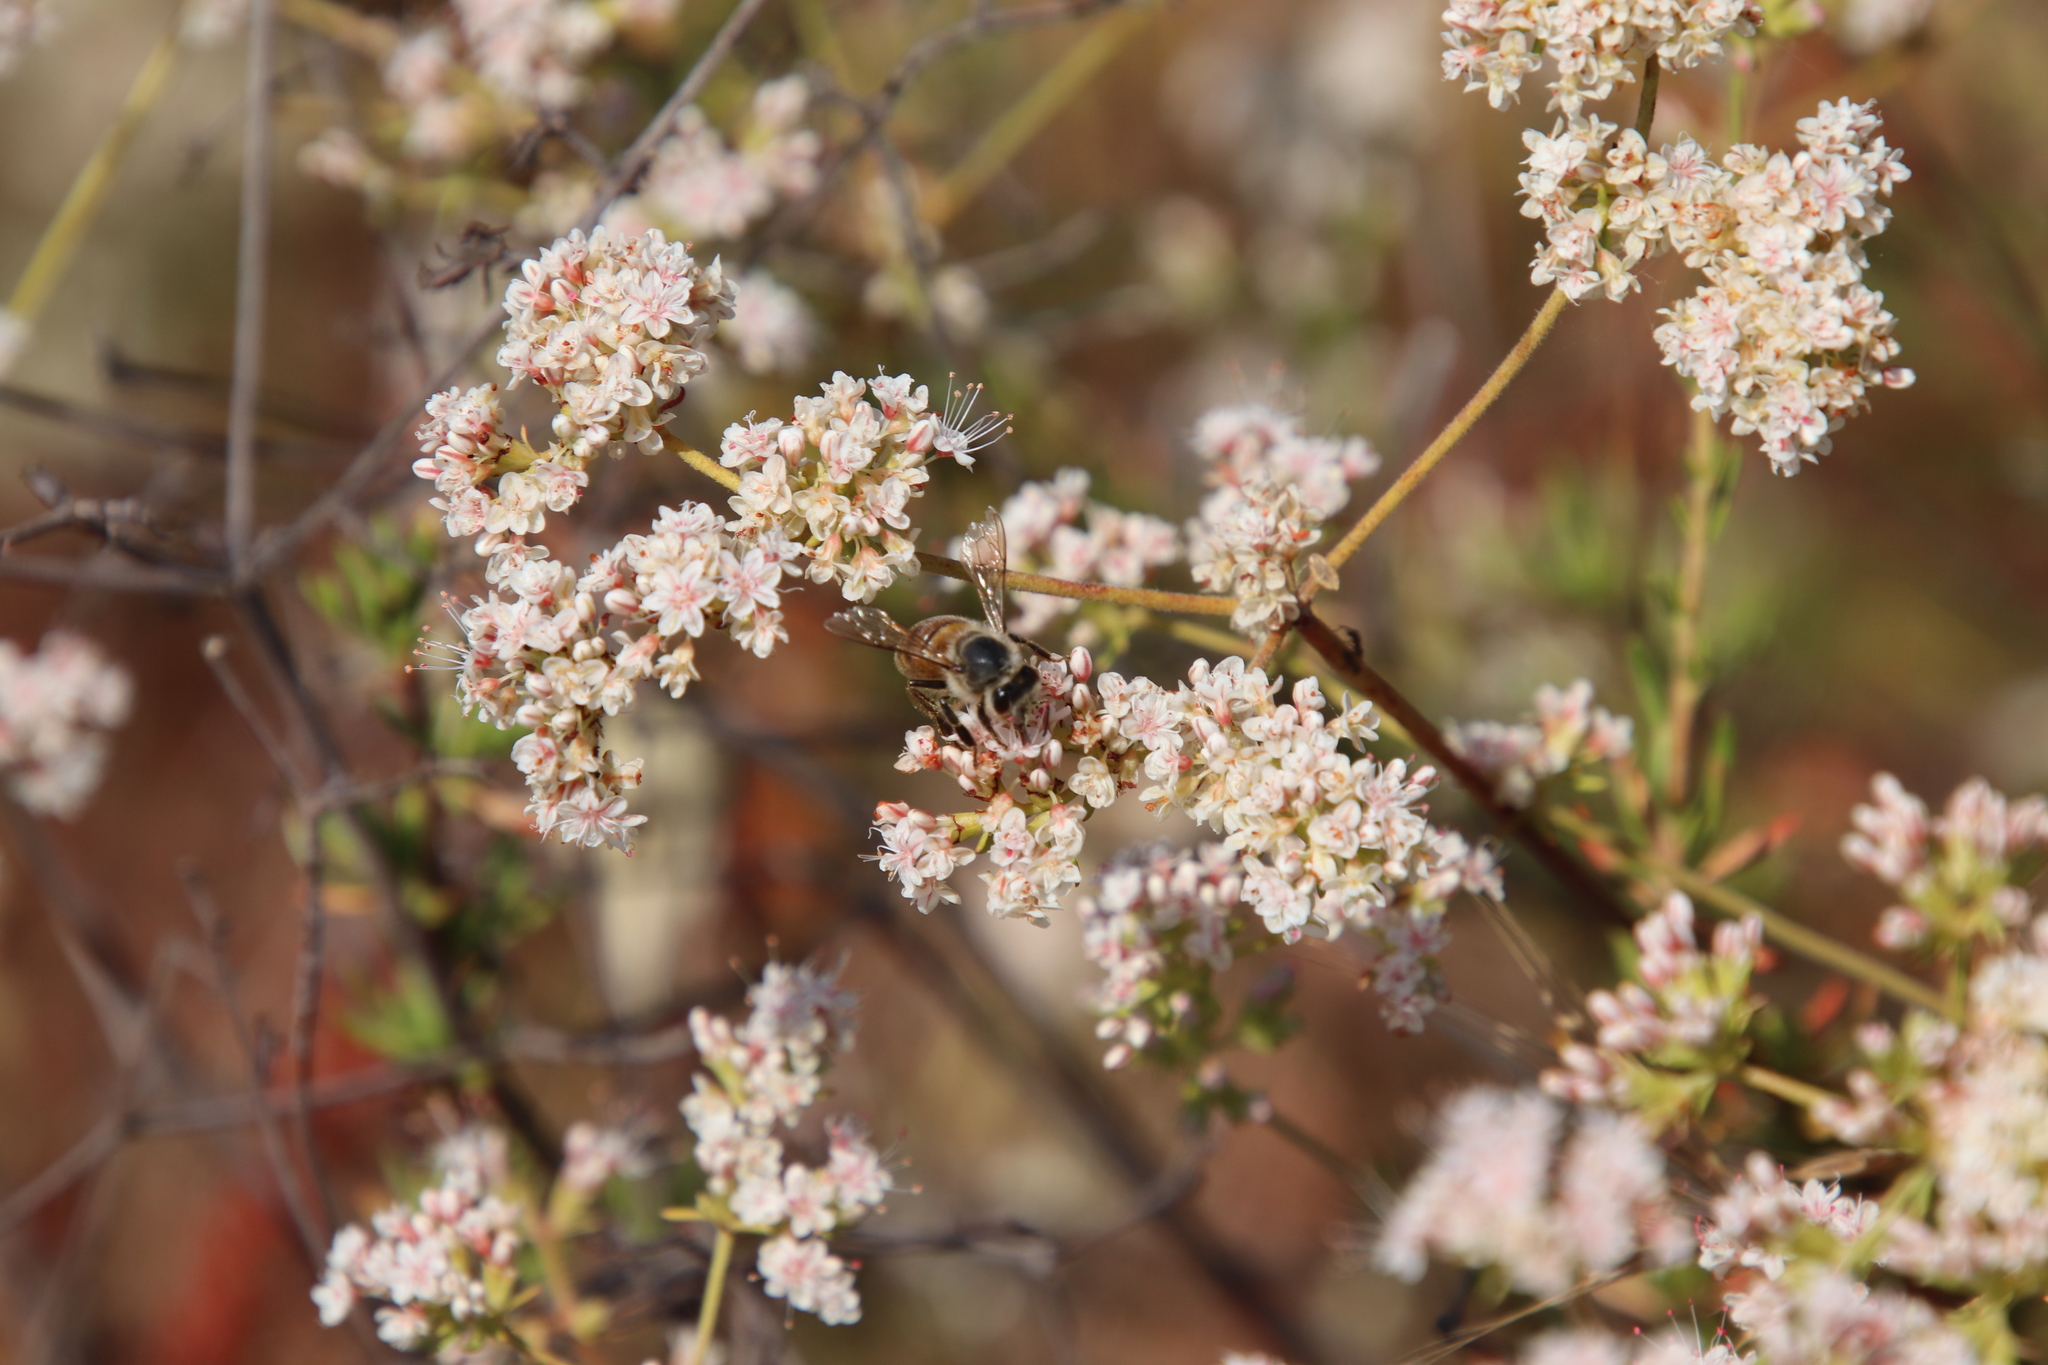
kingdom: Plantae
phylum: Tracheophyta
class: Magnoliopsida
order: Caryophyllales
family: Polygonaceae
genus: Eriogonum
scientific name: Eriogonum fasciculatum
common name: California wild buckwheat
